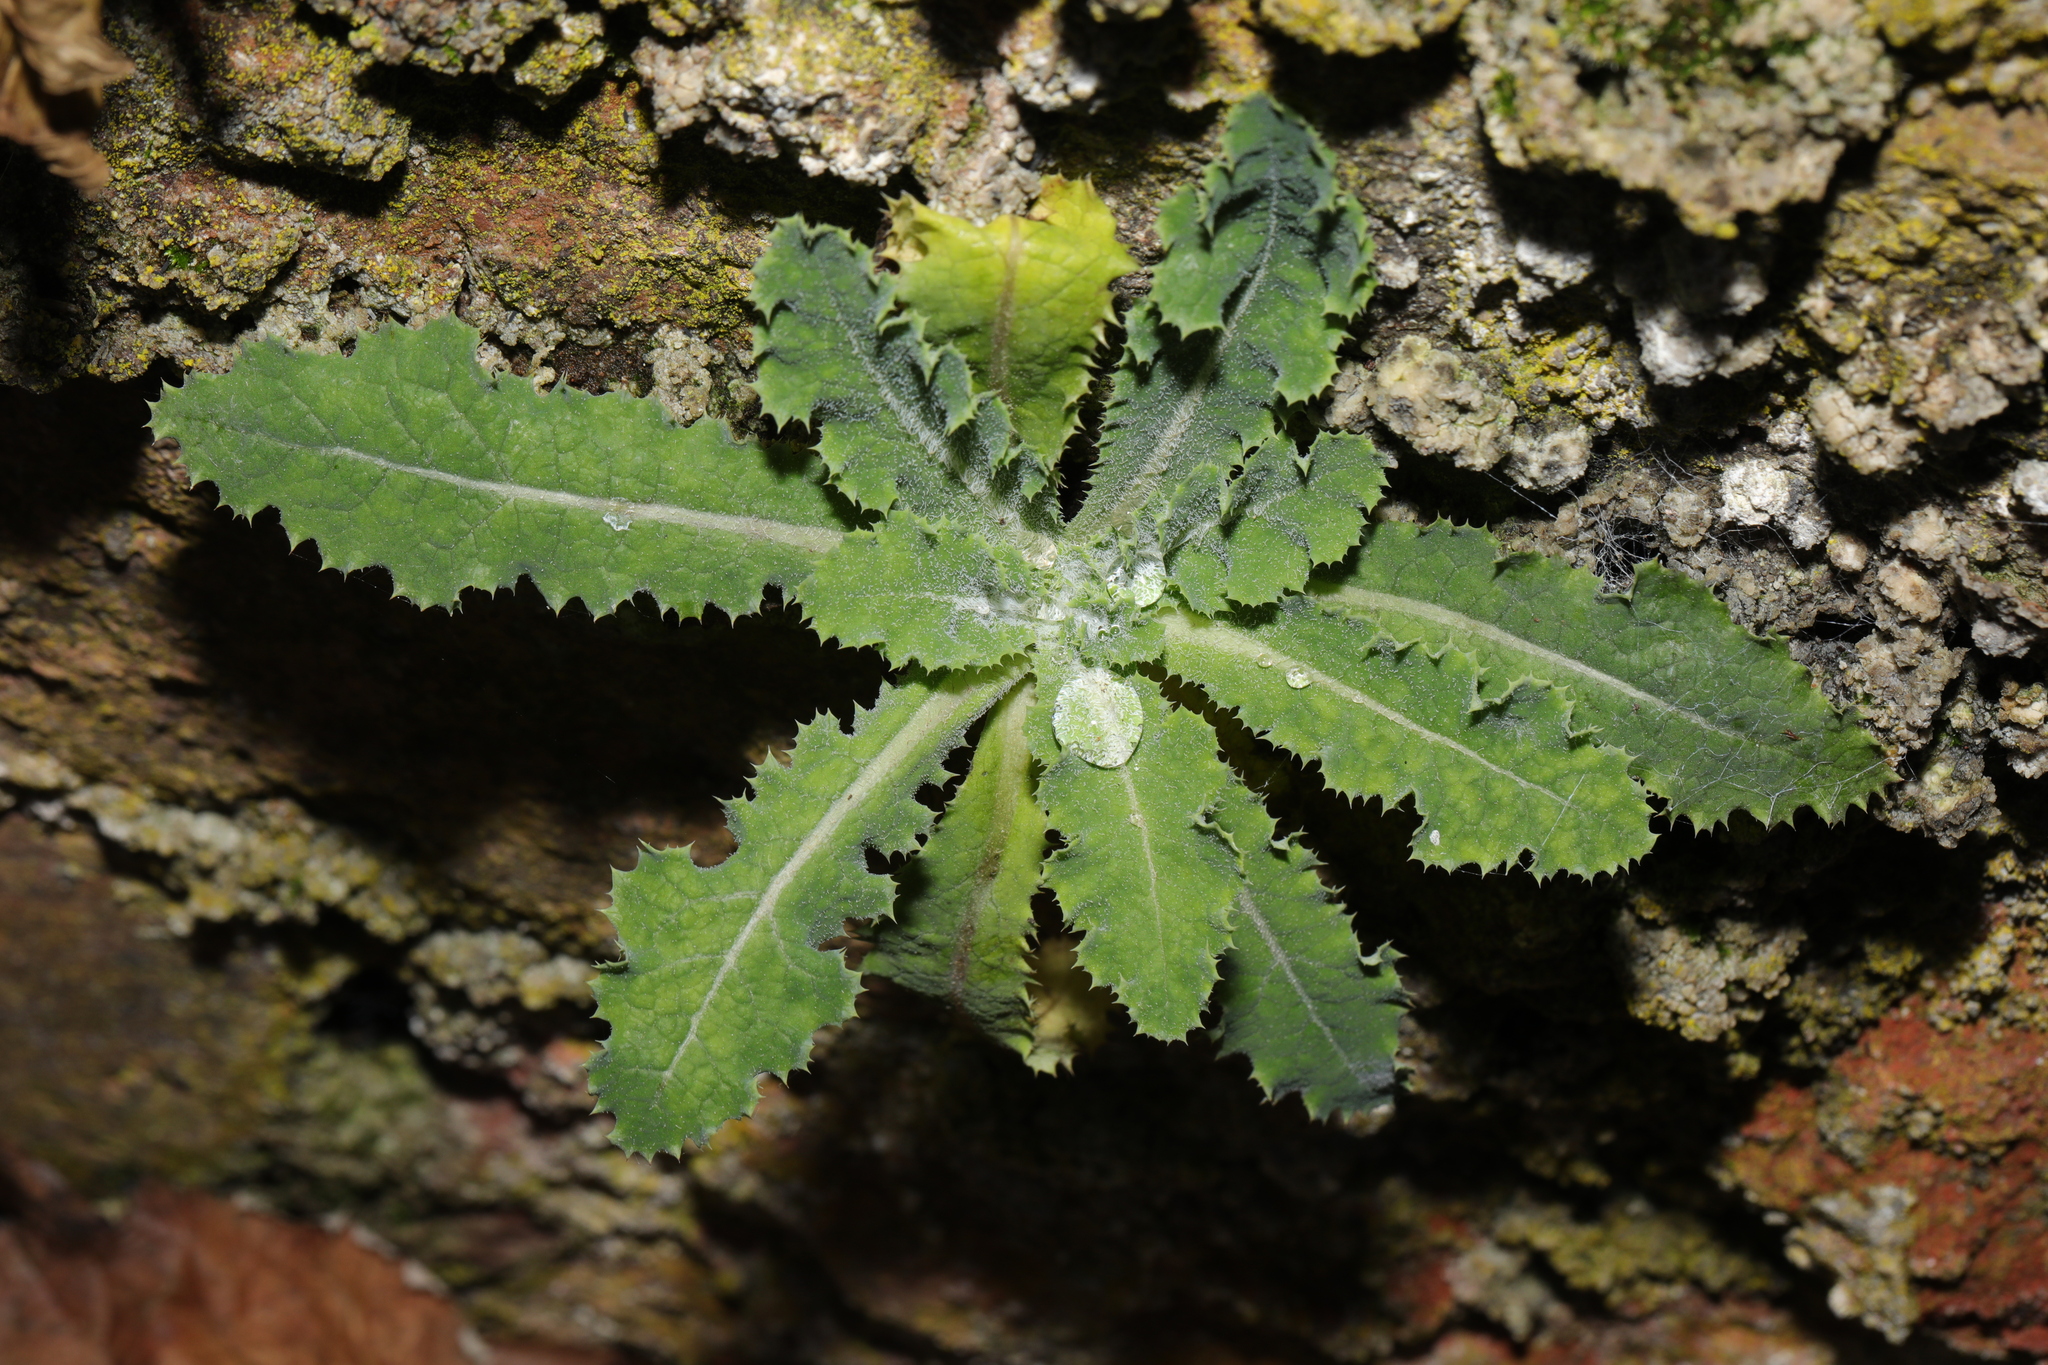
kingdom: Plantae
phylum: Tracheophyta
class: Magnoliopsida
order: Asterales
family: Asteraceae
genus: Sonchus
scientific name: Sonchus asper
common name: Prickly sow-thistle
